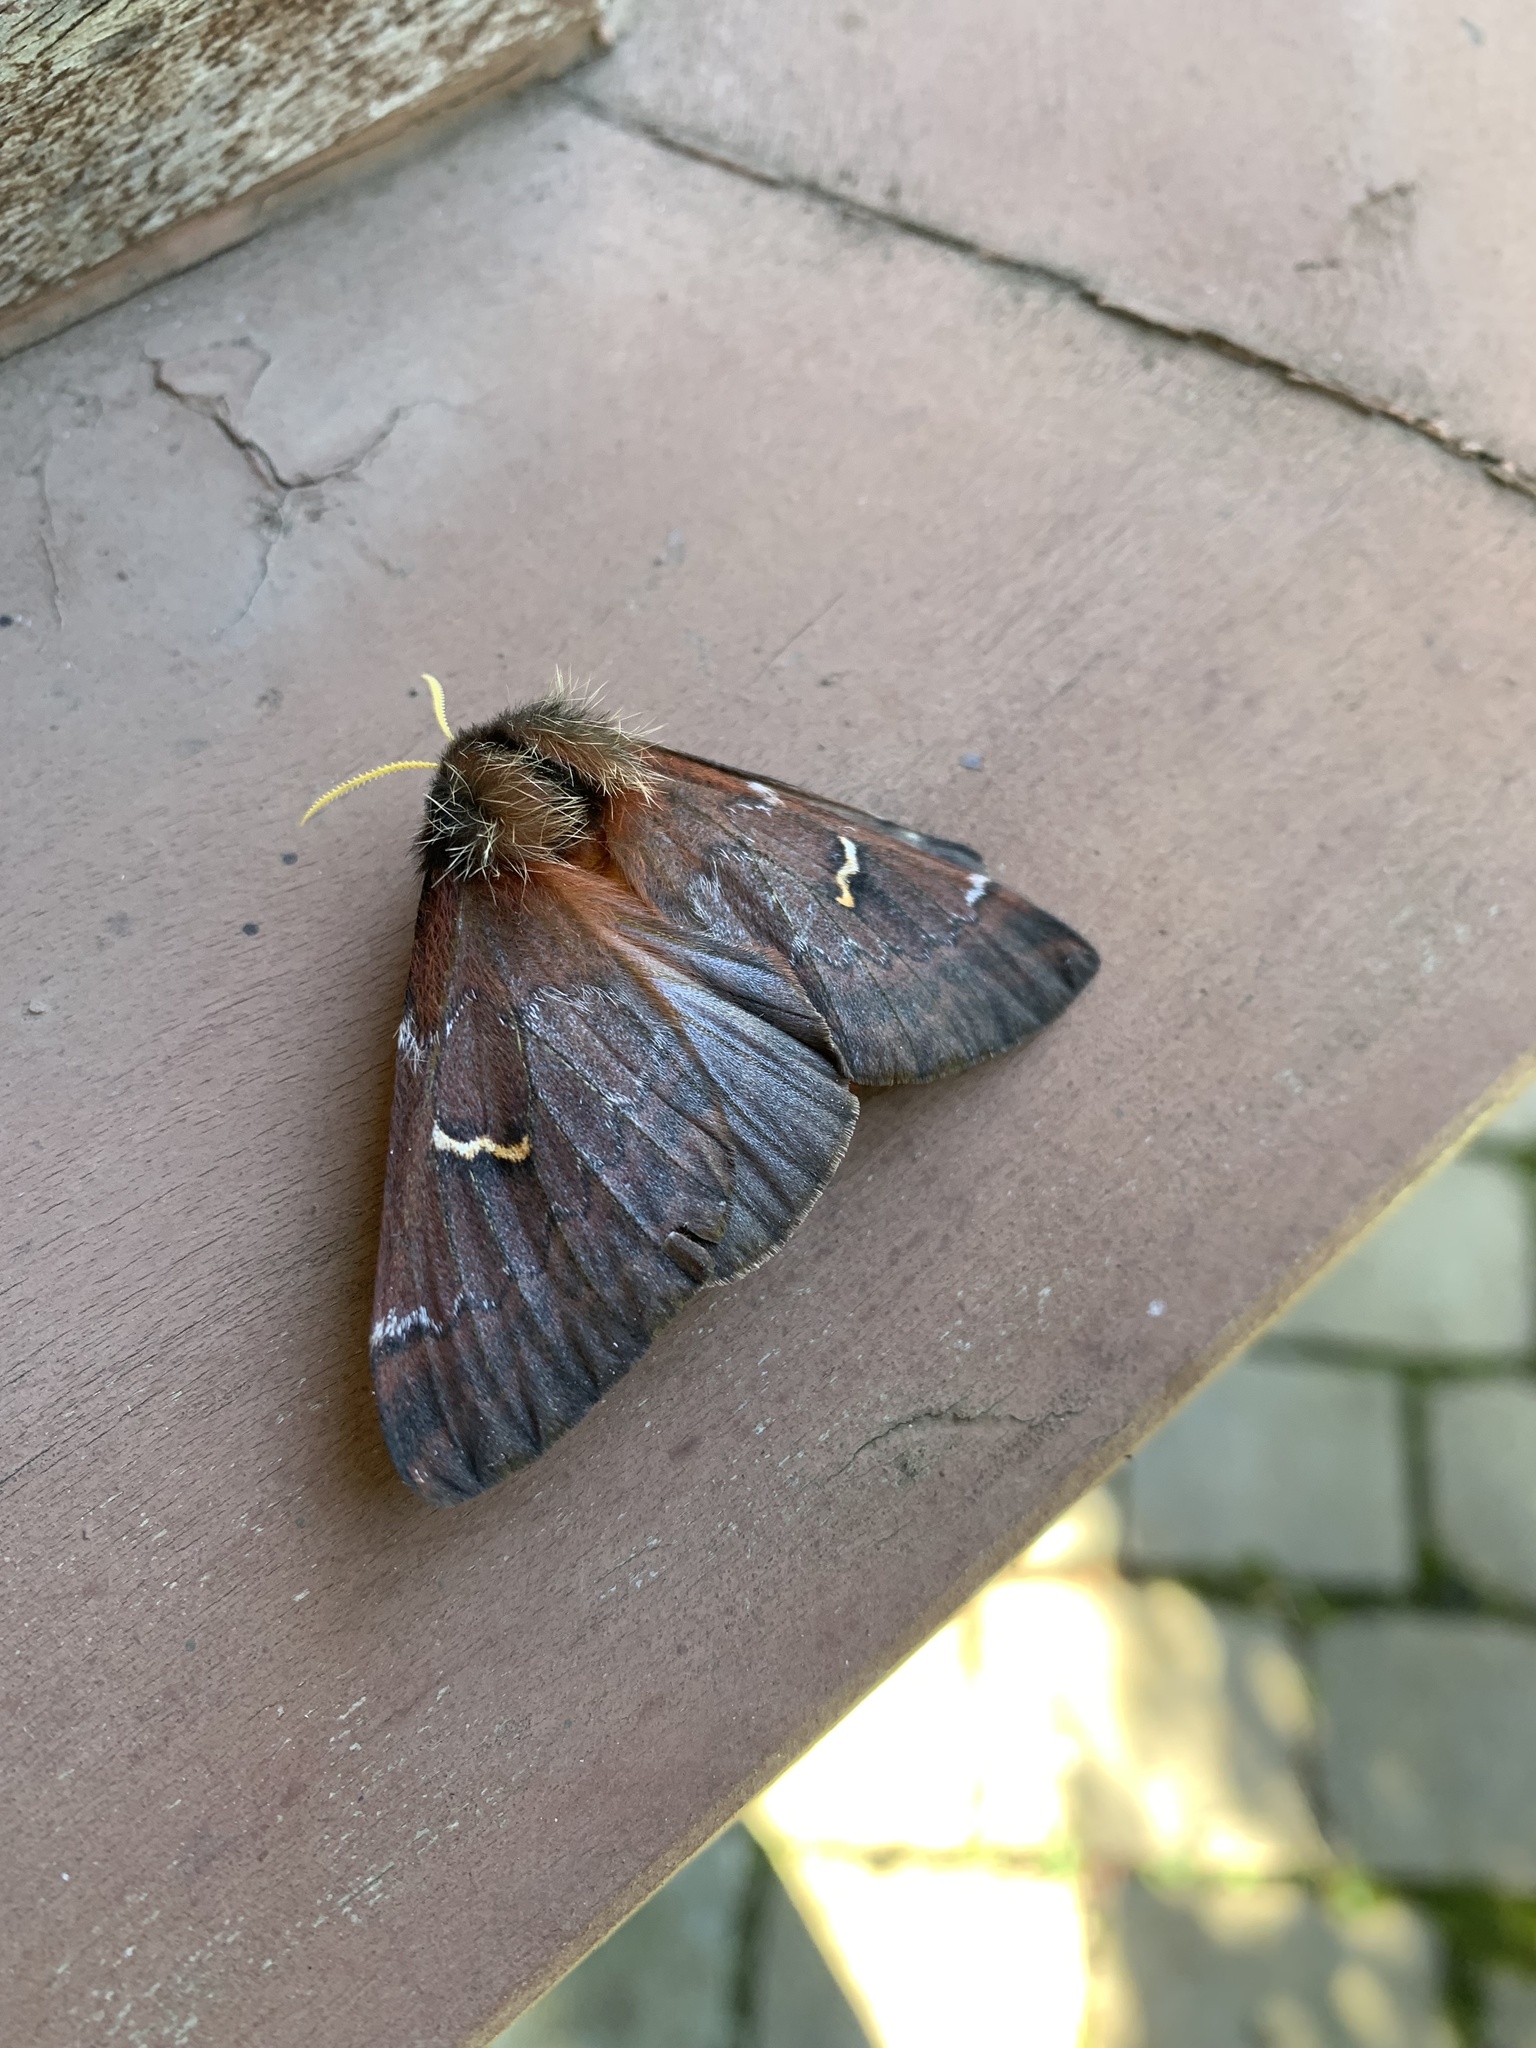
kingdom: Animalia
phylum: Arthropoda
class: Insecta
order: Lepidoptera
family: Saturniidae
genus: Ormiscodes
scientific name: Ormiscodes joiceyi
